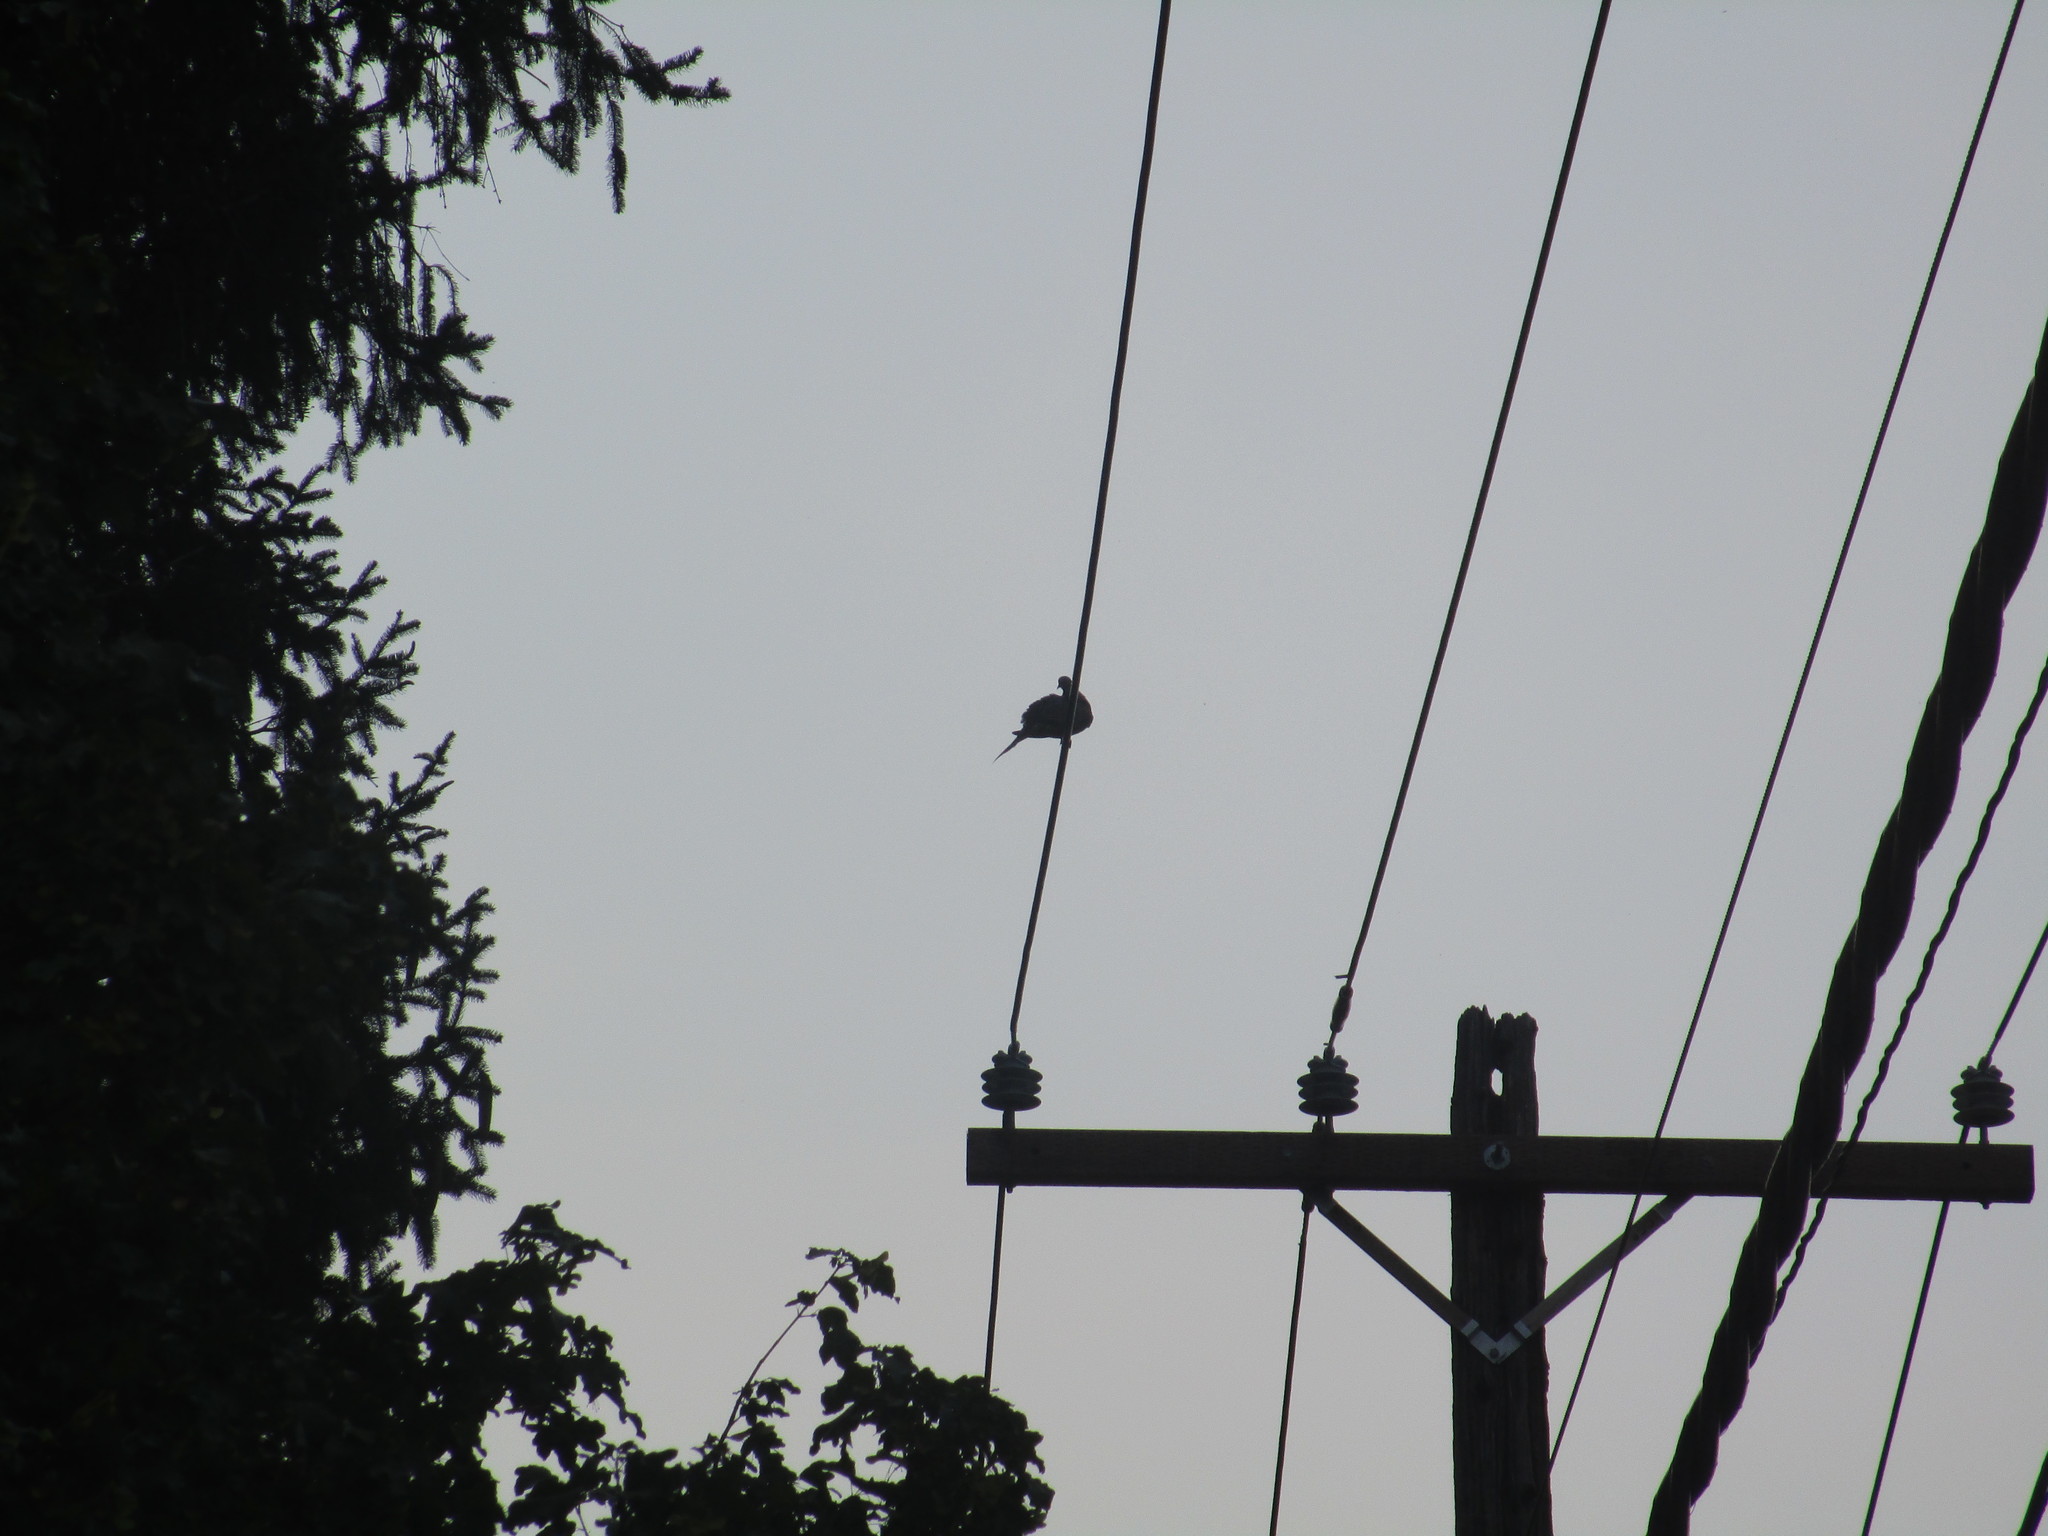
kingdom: Animalia
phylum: Chordata
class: Aves
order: Columbiformes
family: Columbidae
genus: Zenaida
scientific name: Zenaida macroura
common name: Mourning dove
